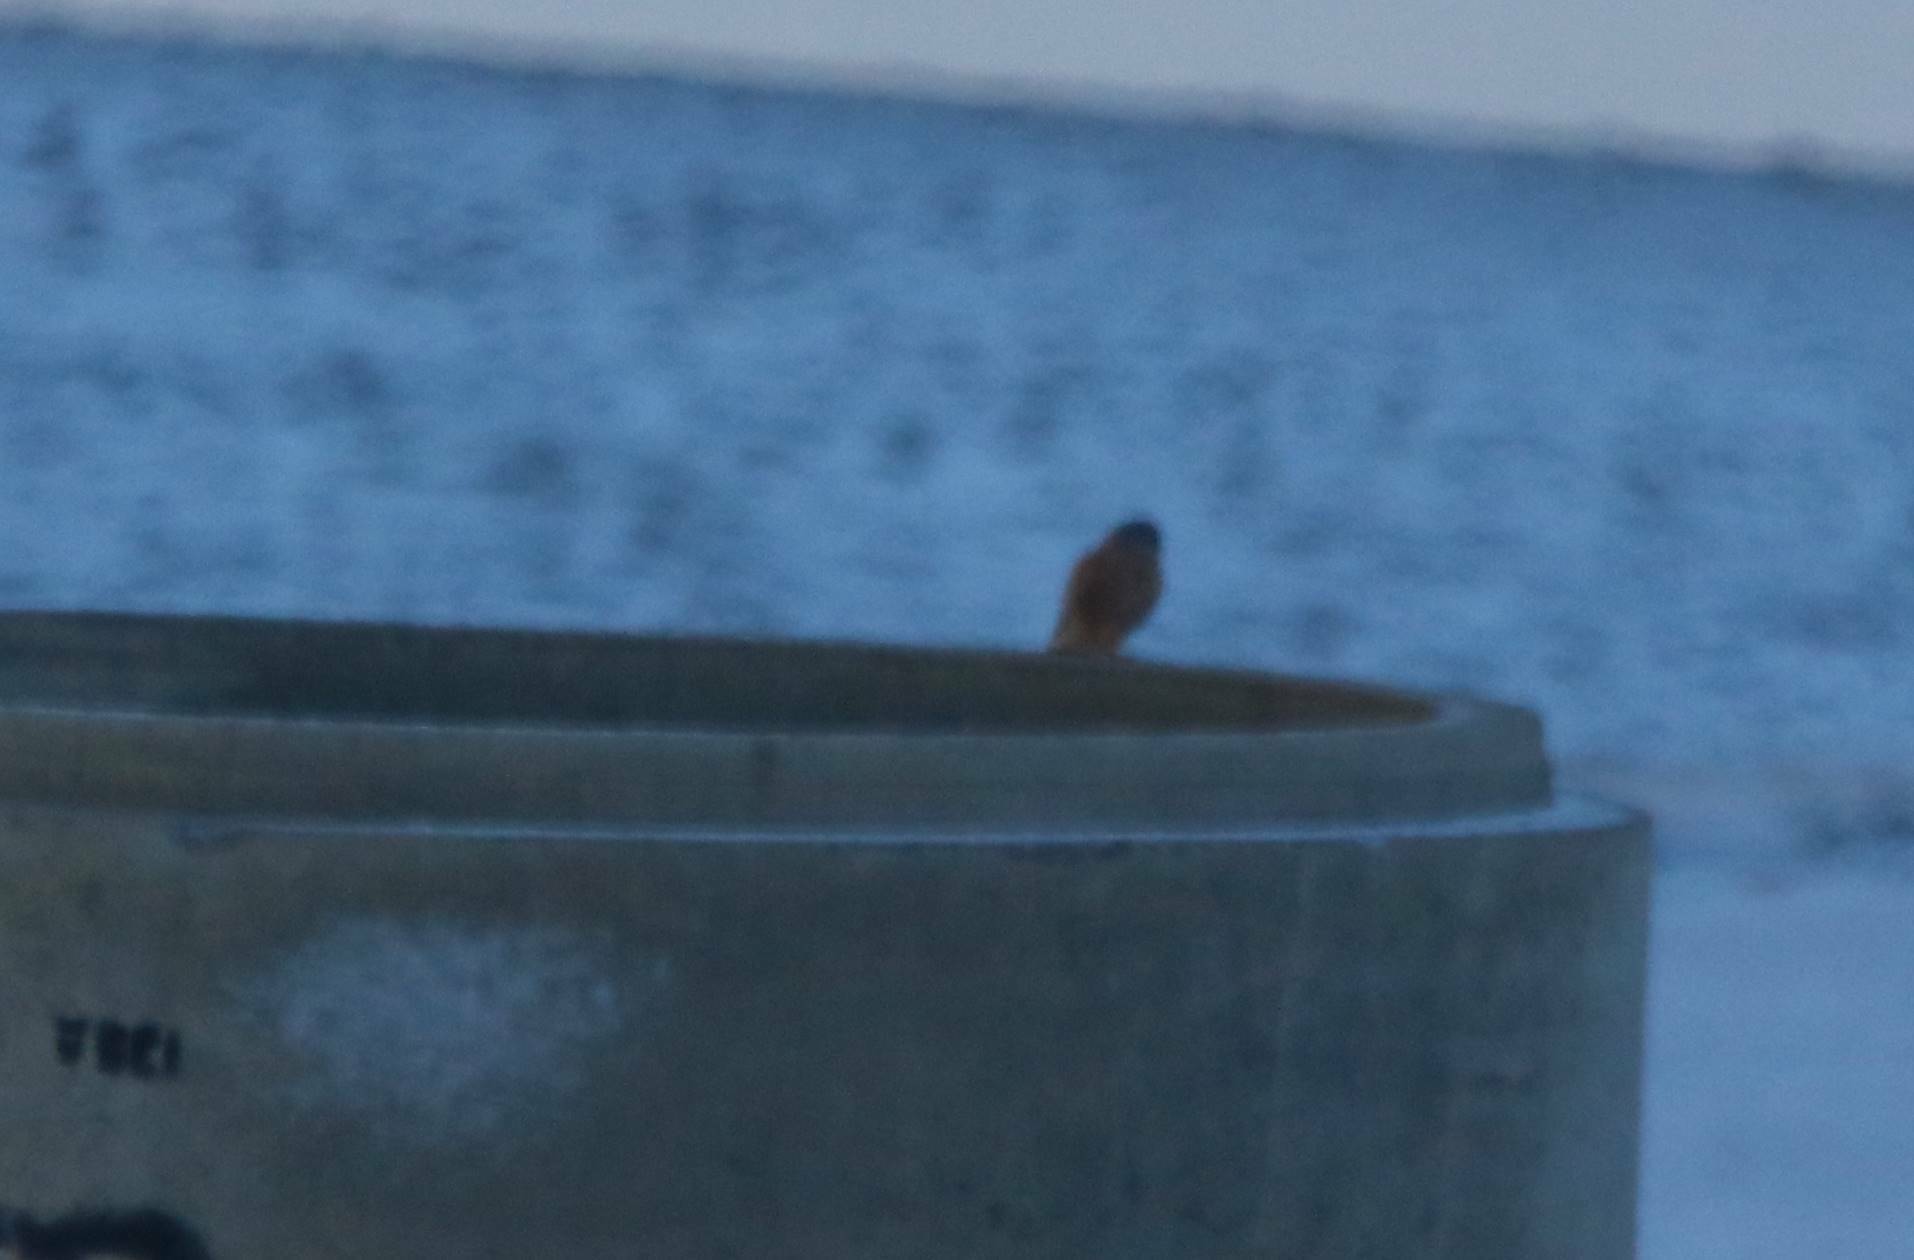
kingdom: Animalia
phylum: Chordata
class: Aves
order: Falconiformes
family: Falconidae
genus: Falco
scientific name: Falco tinnunculus
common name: Common kestrel
